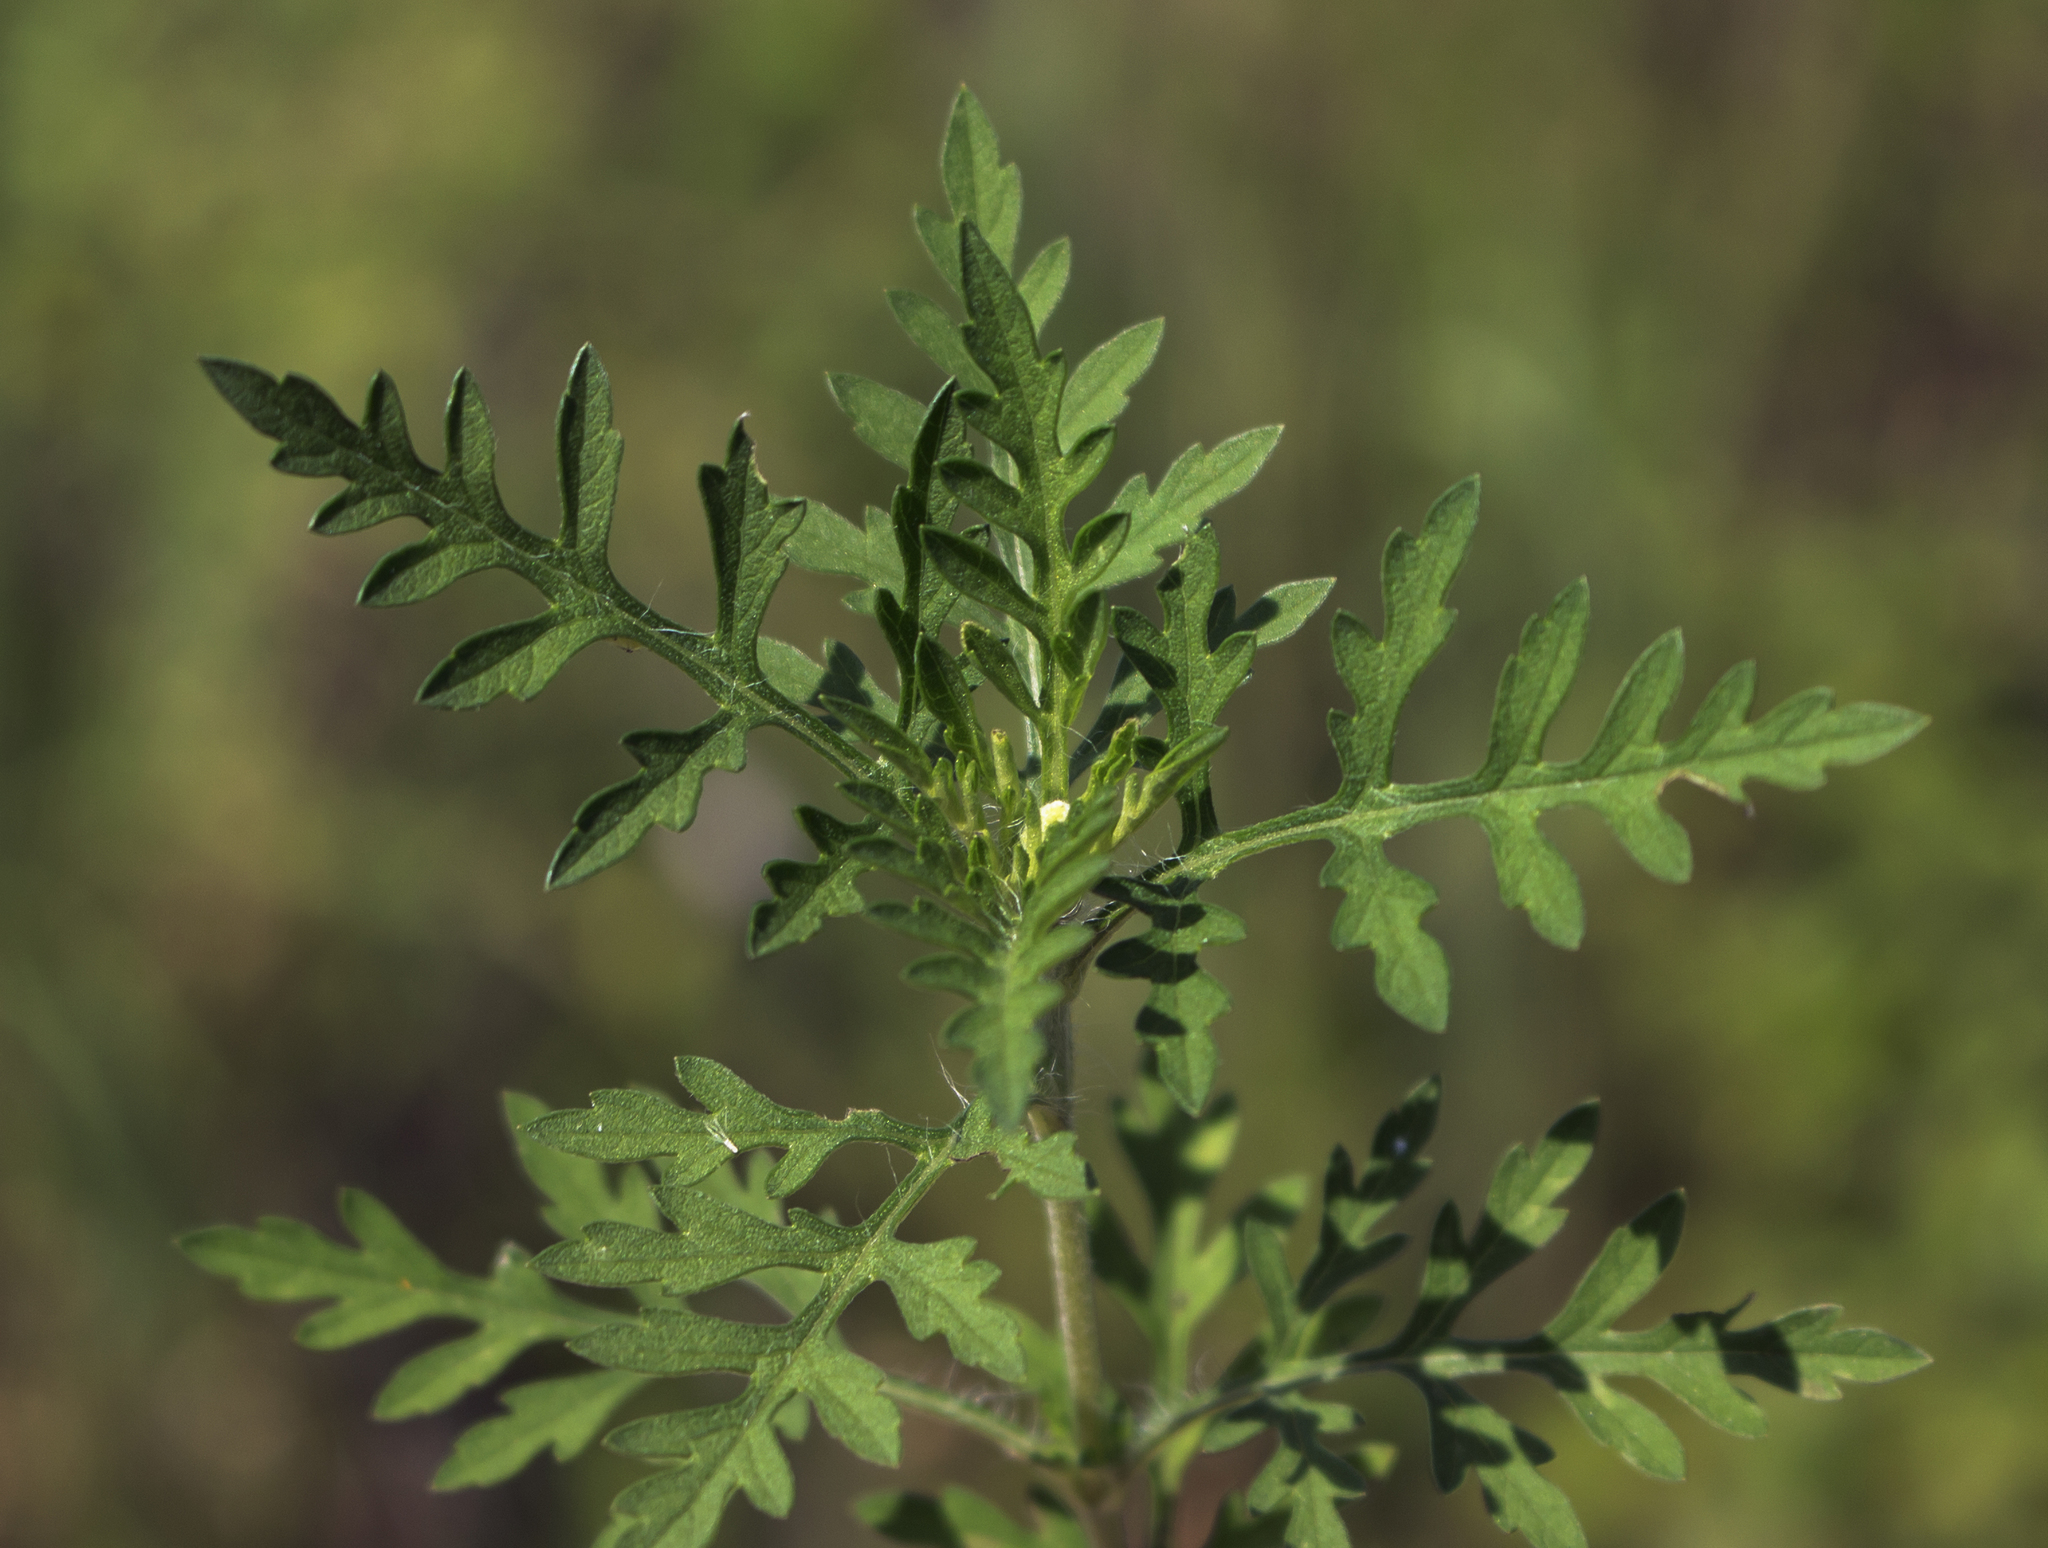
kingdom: Plantae
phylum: Tracheophyta
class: Magnoliopsida
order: Asterales
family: Asteraceae
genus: Ambrosia
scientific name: Ambrosia artemisiifolia
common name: Annual ragweed
